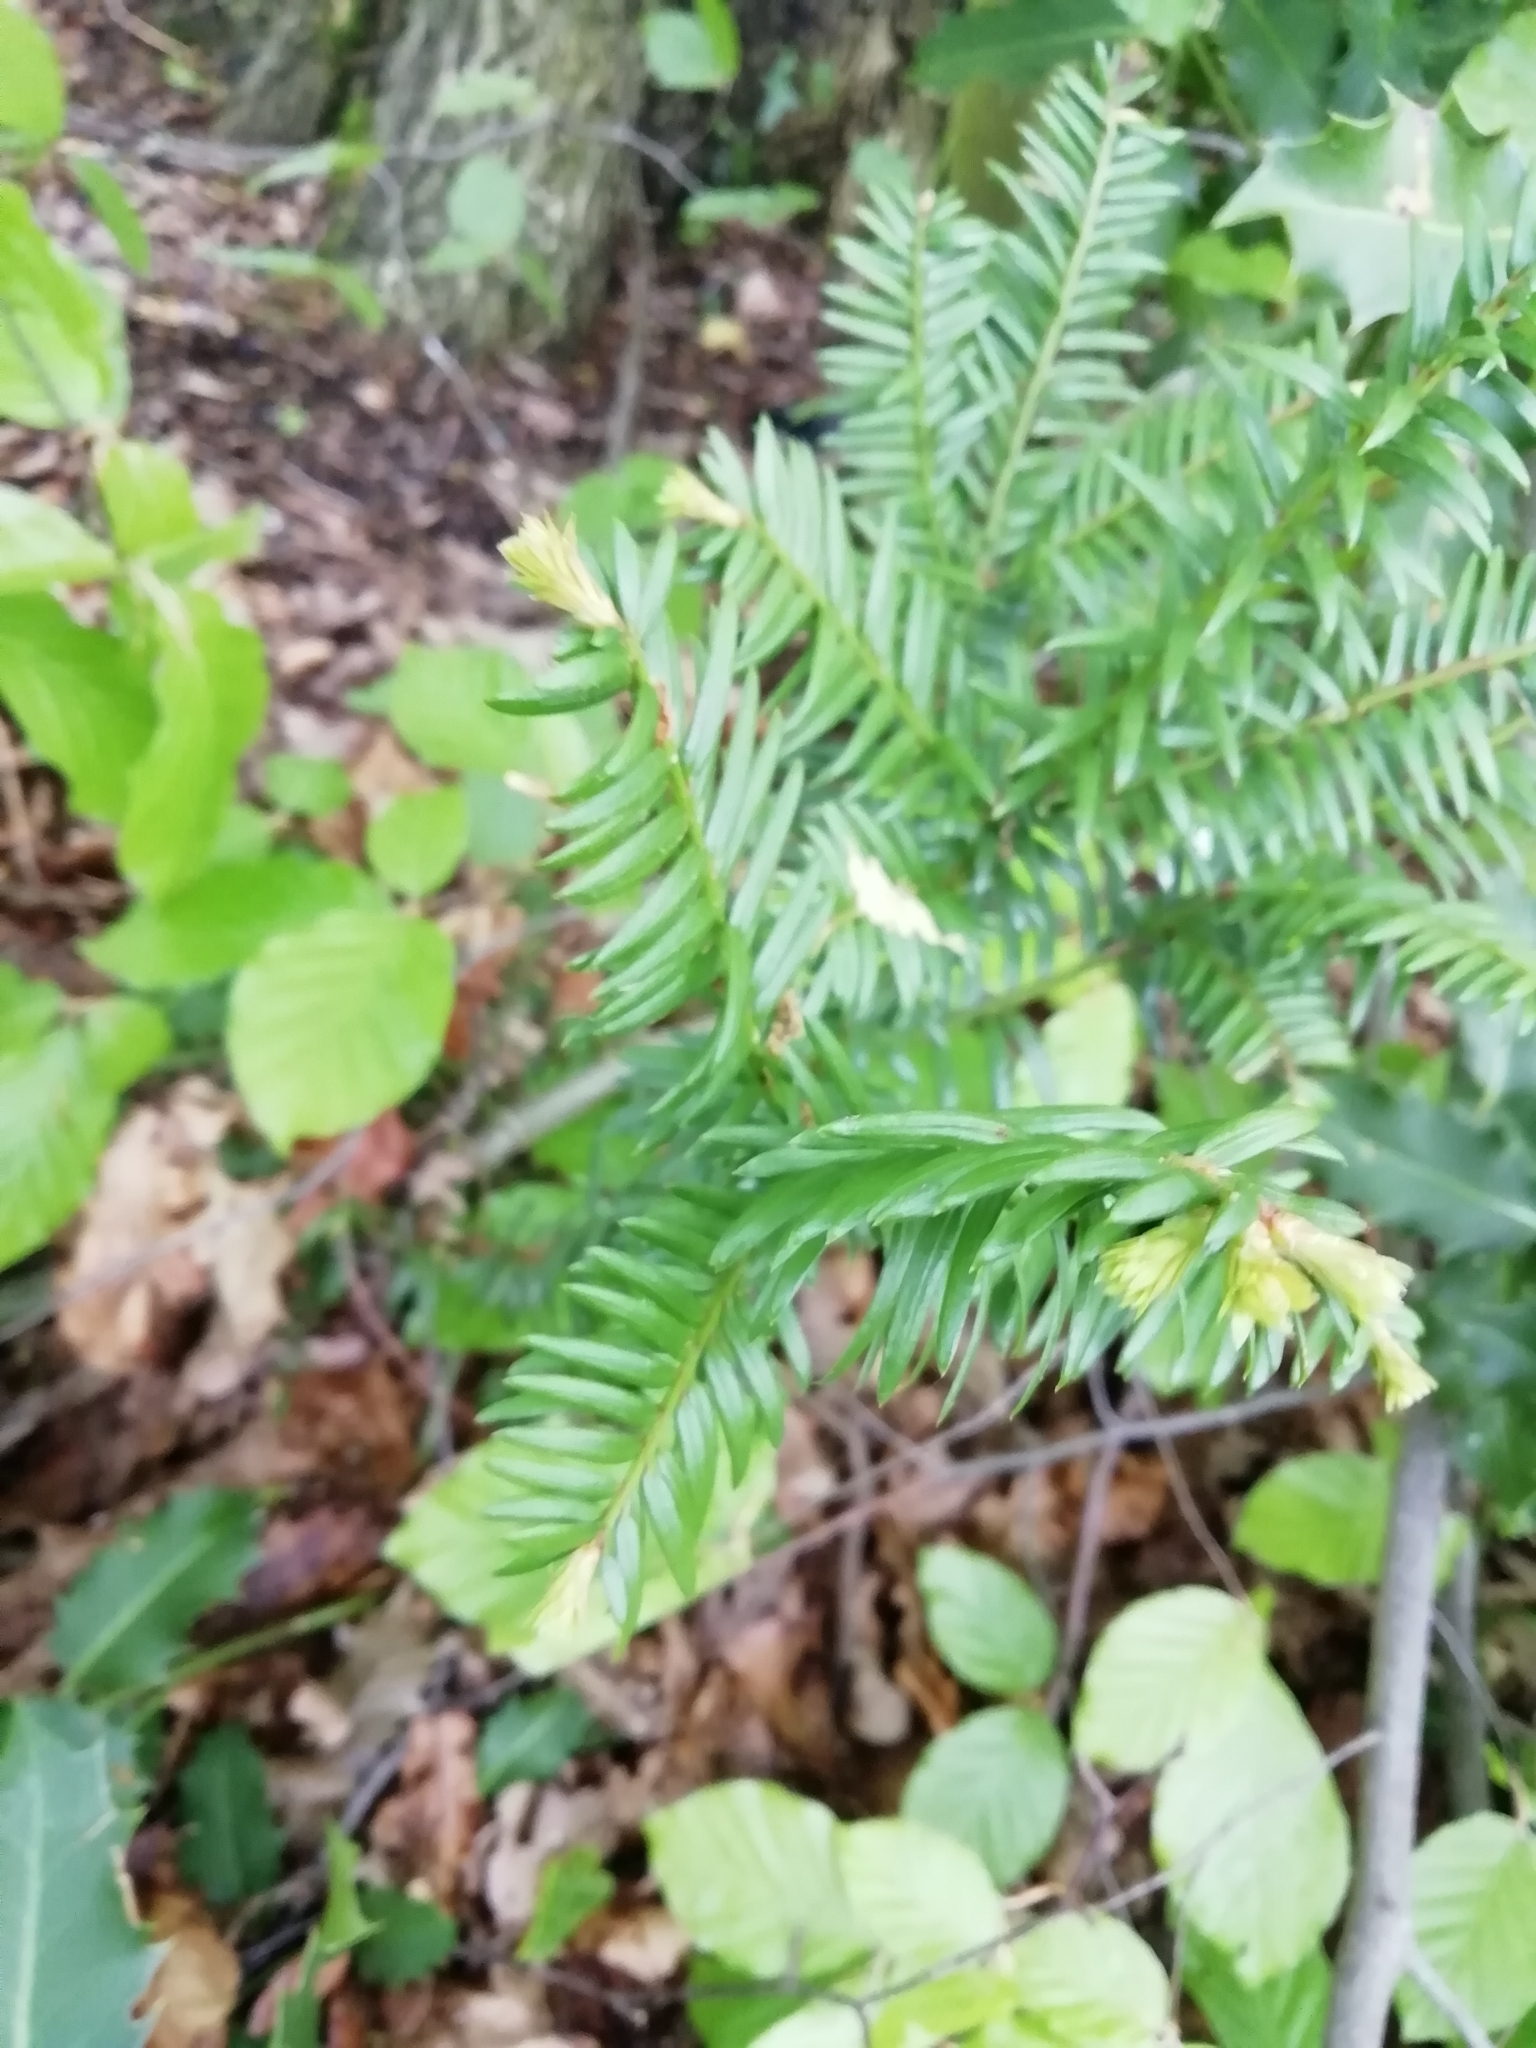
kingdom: Plantae
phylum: Tracheophyta
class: Pinopsida
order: Pinales
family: Taxaceae
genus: Taxus
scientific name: Taxus baccata
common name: Yew
